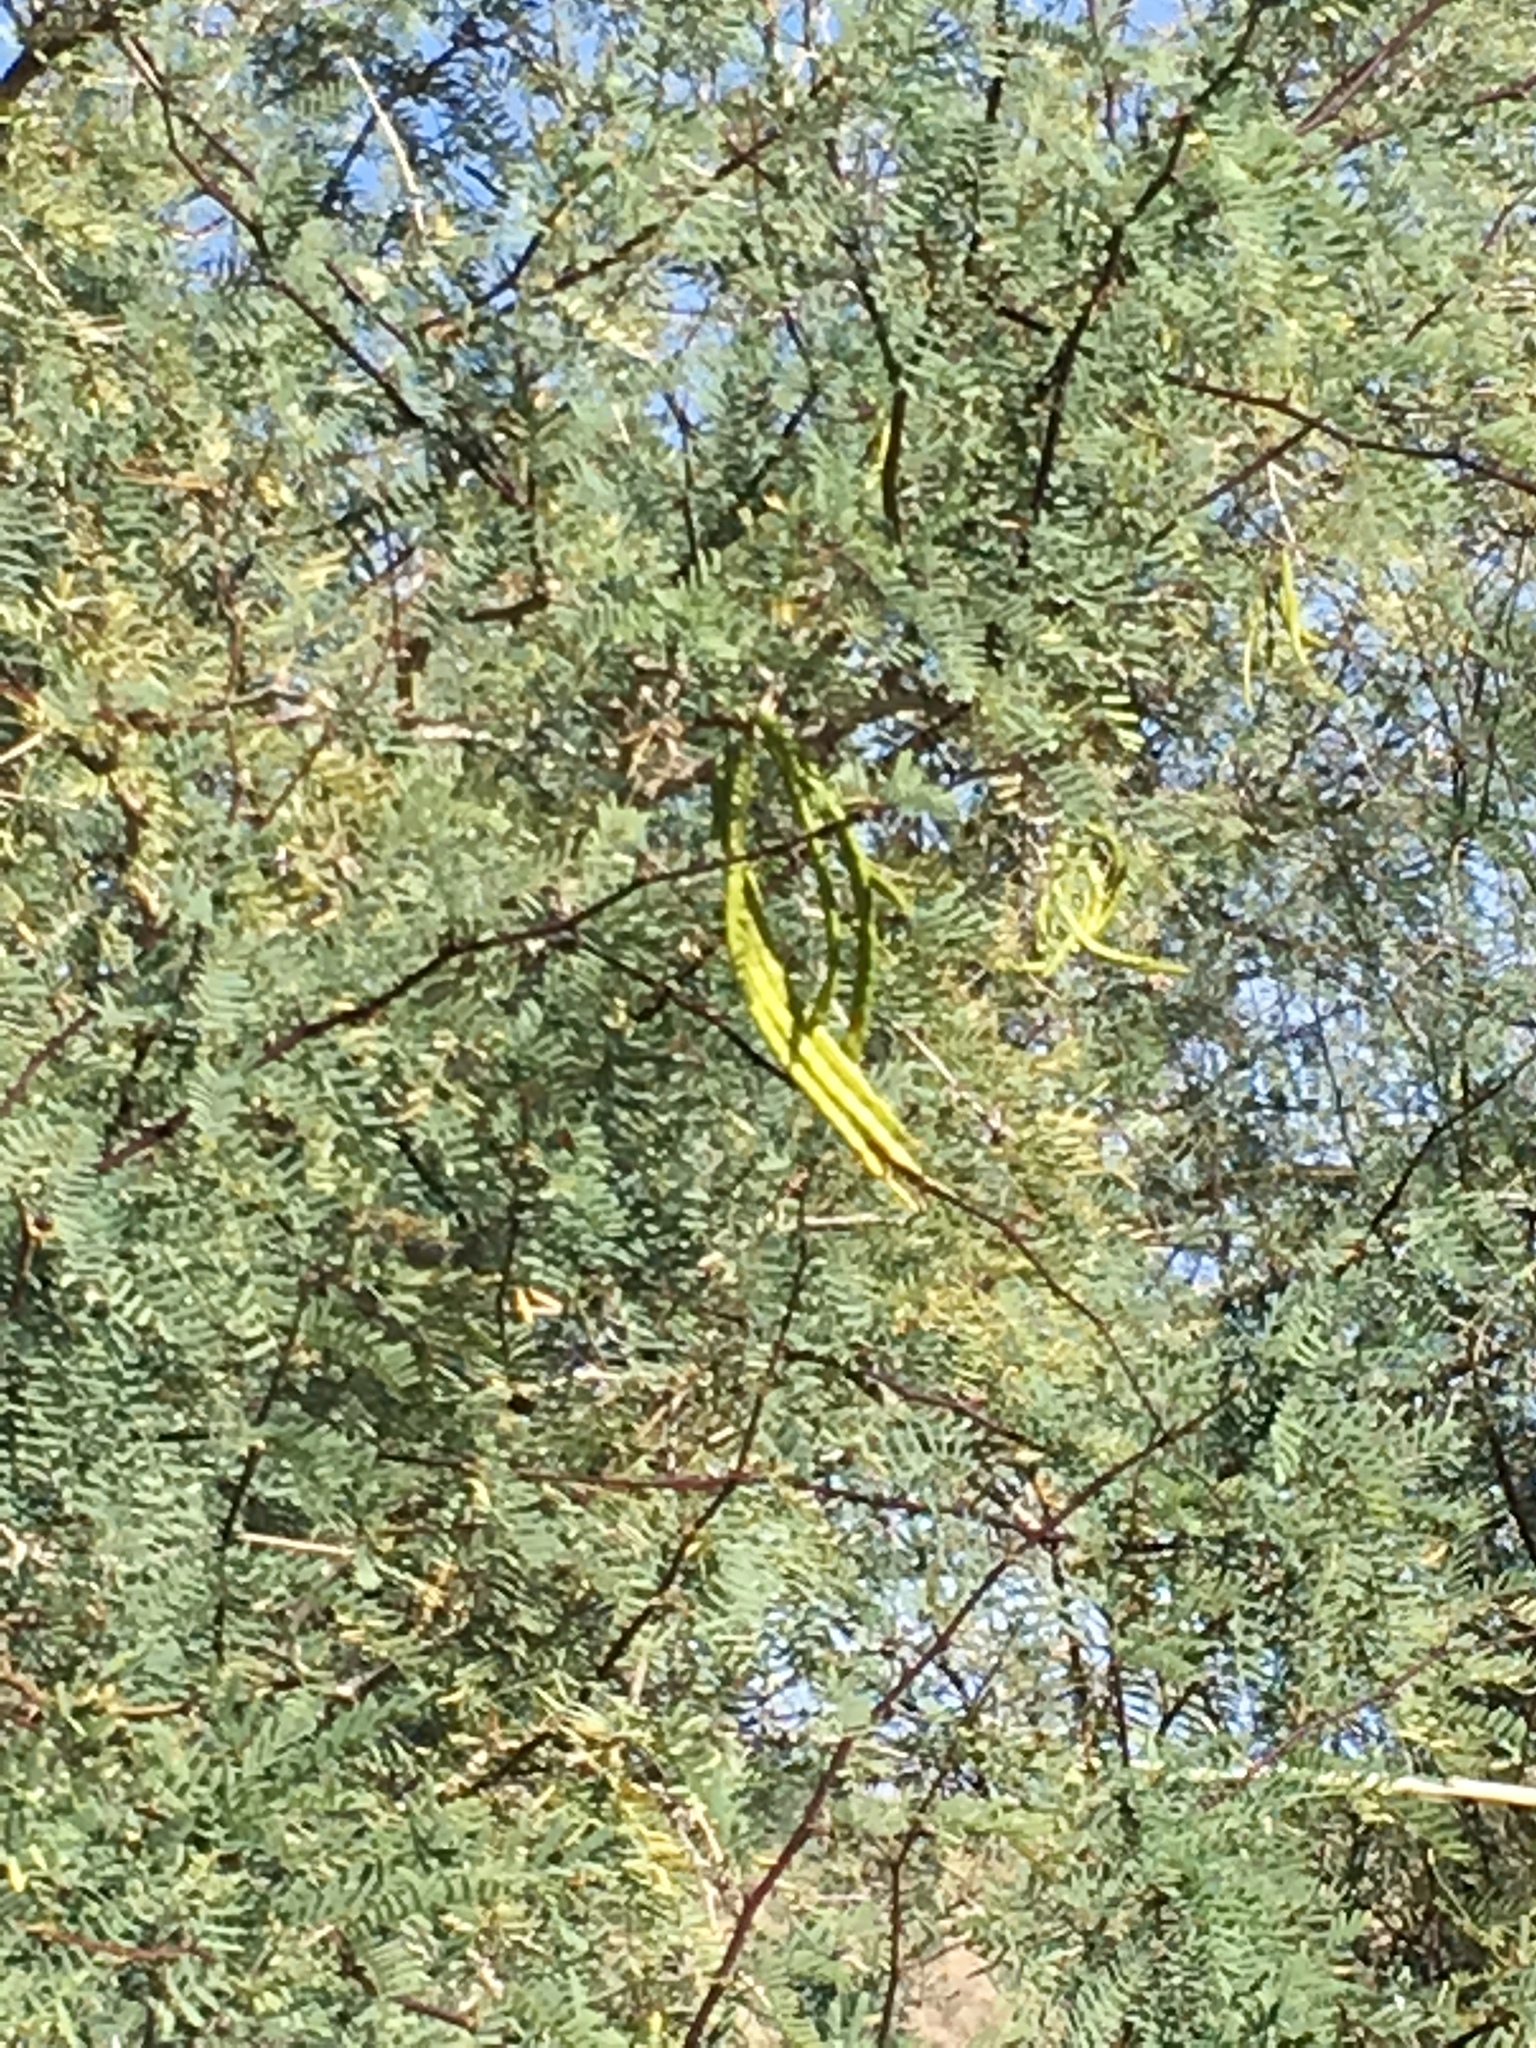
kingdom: Plantae
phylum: Tracheophyta
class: Magnoliopsida
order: Fabales
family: Fabaceae
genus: Prosopis
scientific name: Prosopis pubescens
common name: Screw-bean
